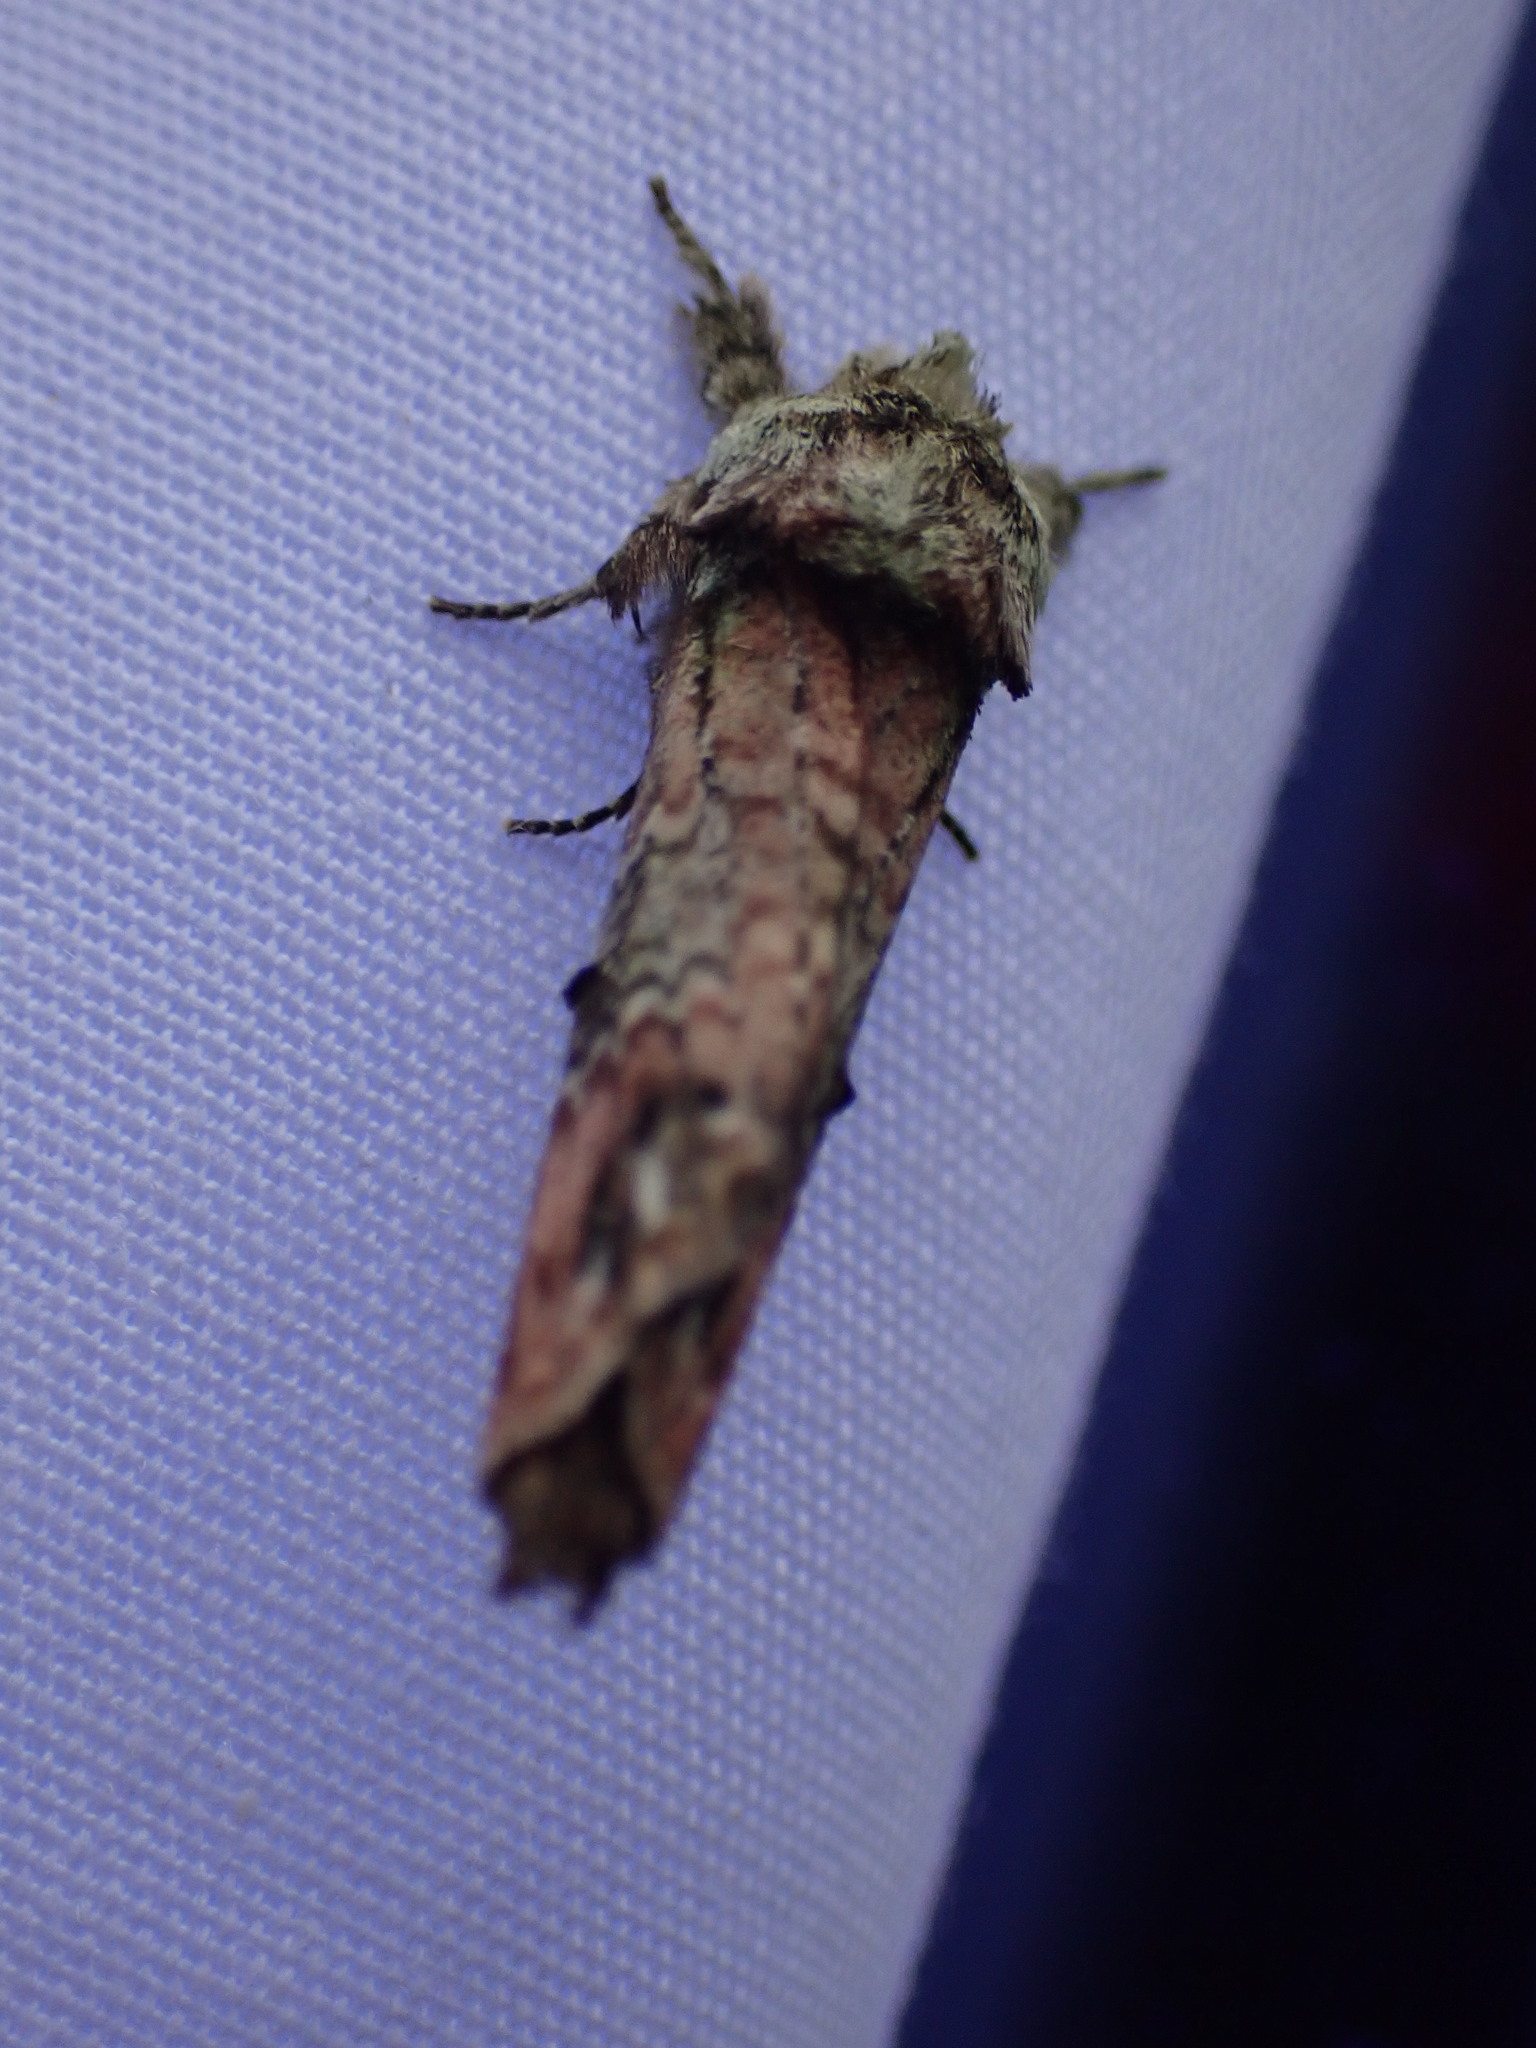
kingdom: Animalia
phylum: Arthropoda
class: Insecta
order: Lepidoptera
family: Notodontidae
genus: Schizura
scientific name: Schizura
